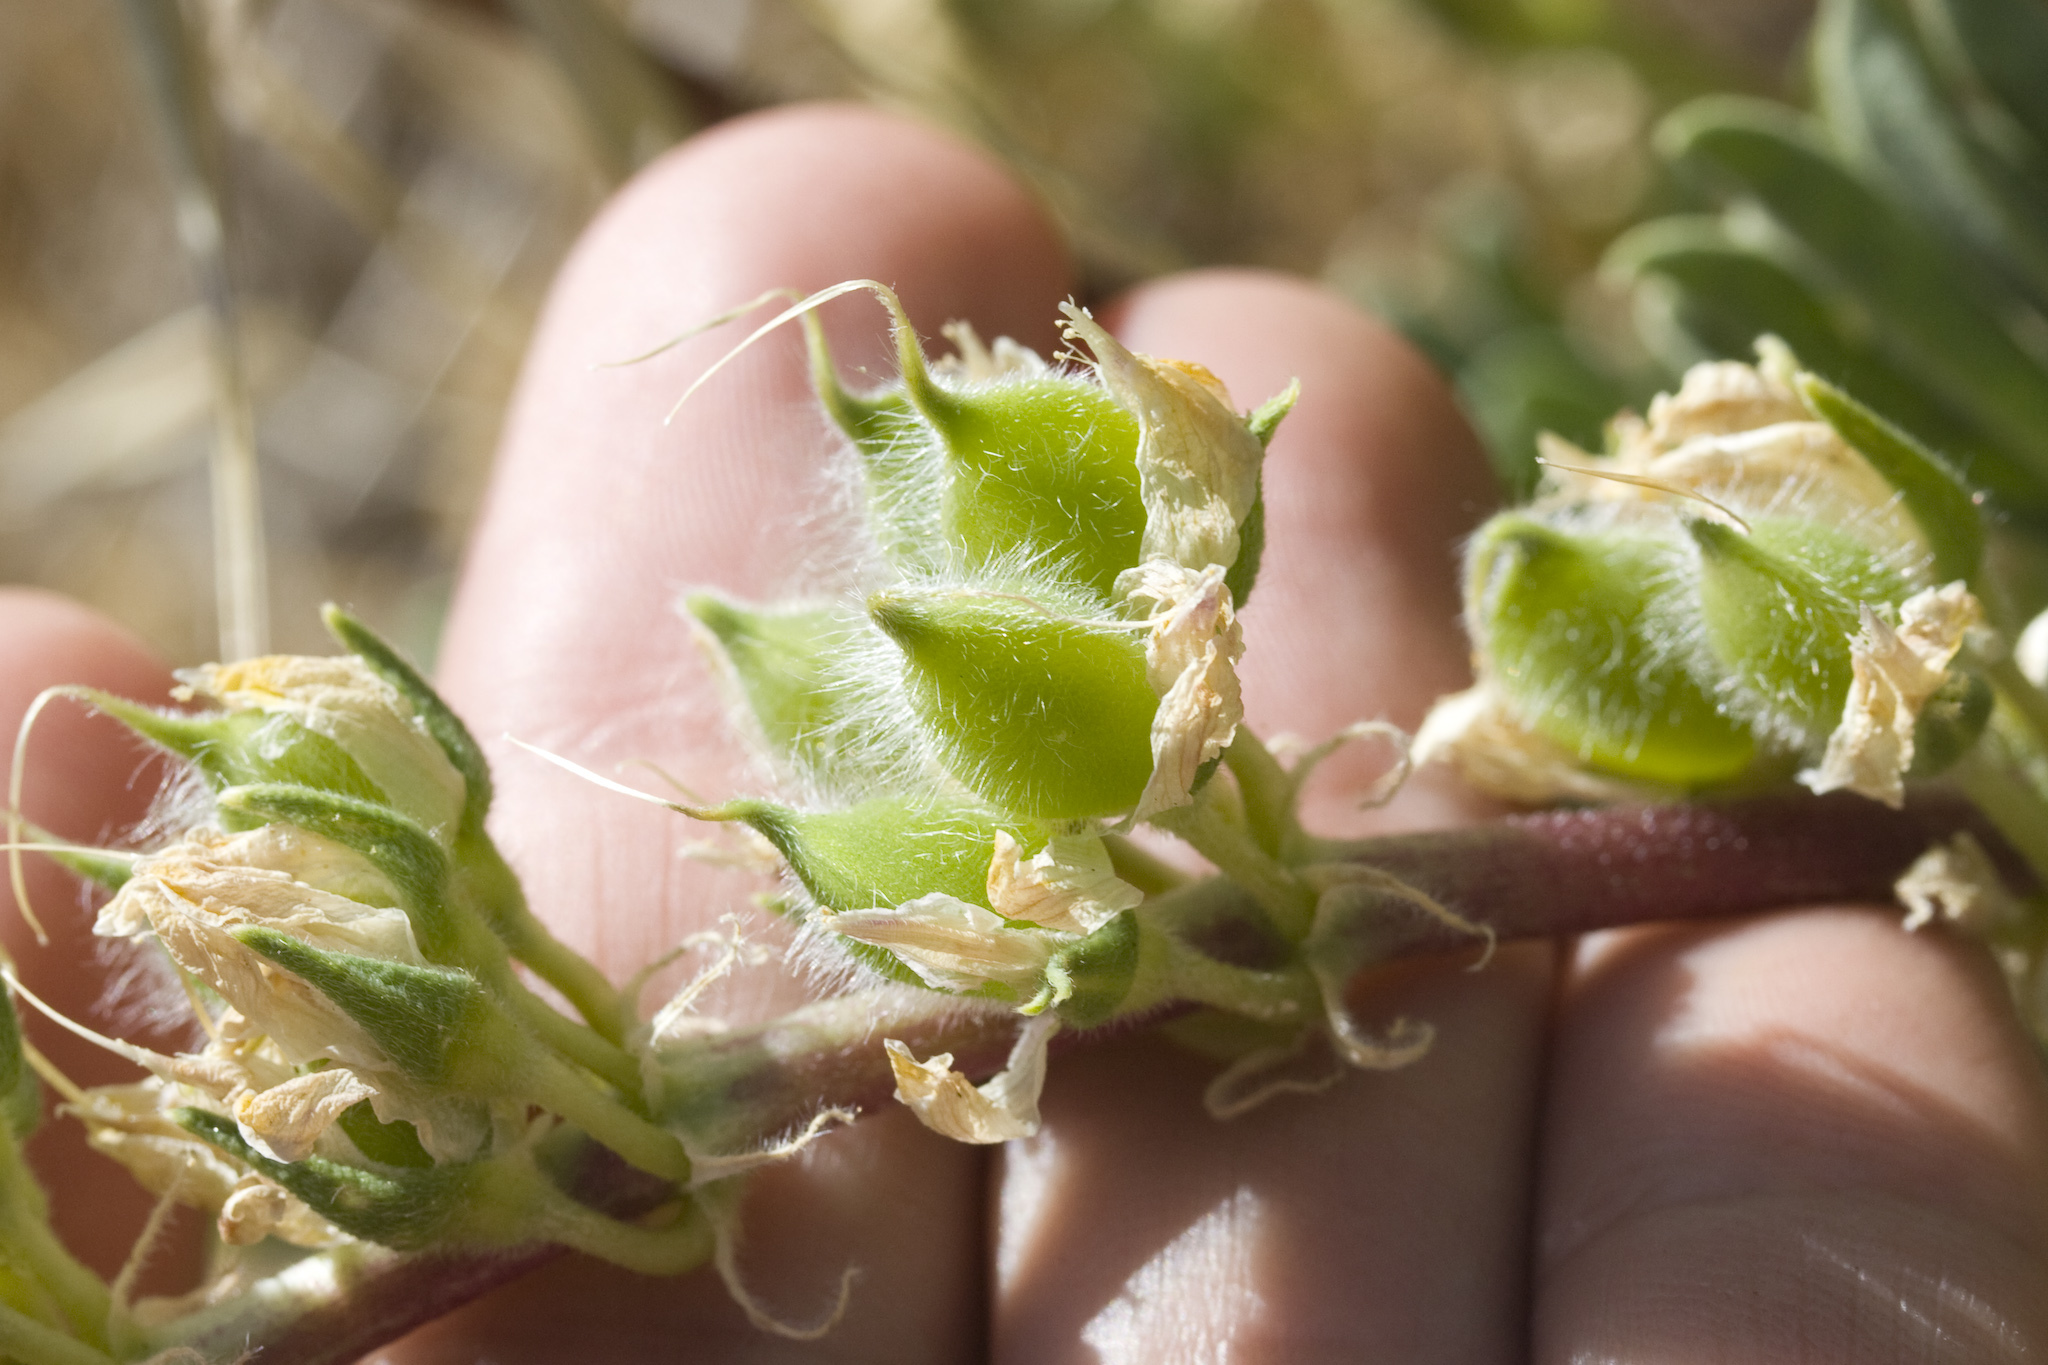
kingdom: Plantae
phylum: Tracheophyta
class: Magnoliopsida
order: Fabales
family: Fabaceae
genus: Lupinus
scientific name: Lupinus microcarpus
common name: Chick lupine
